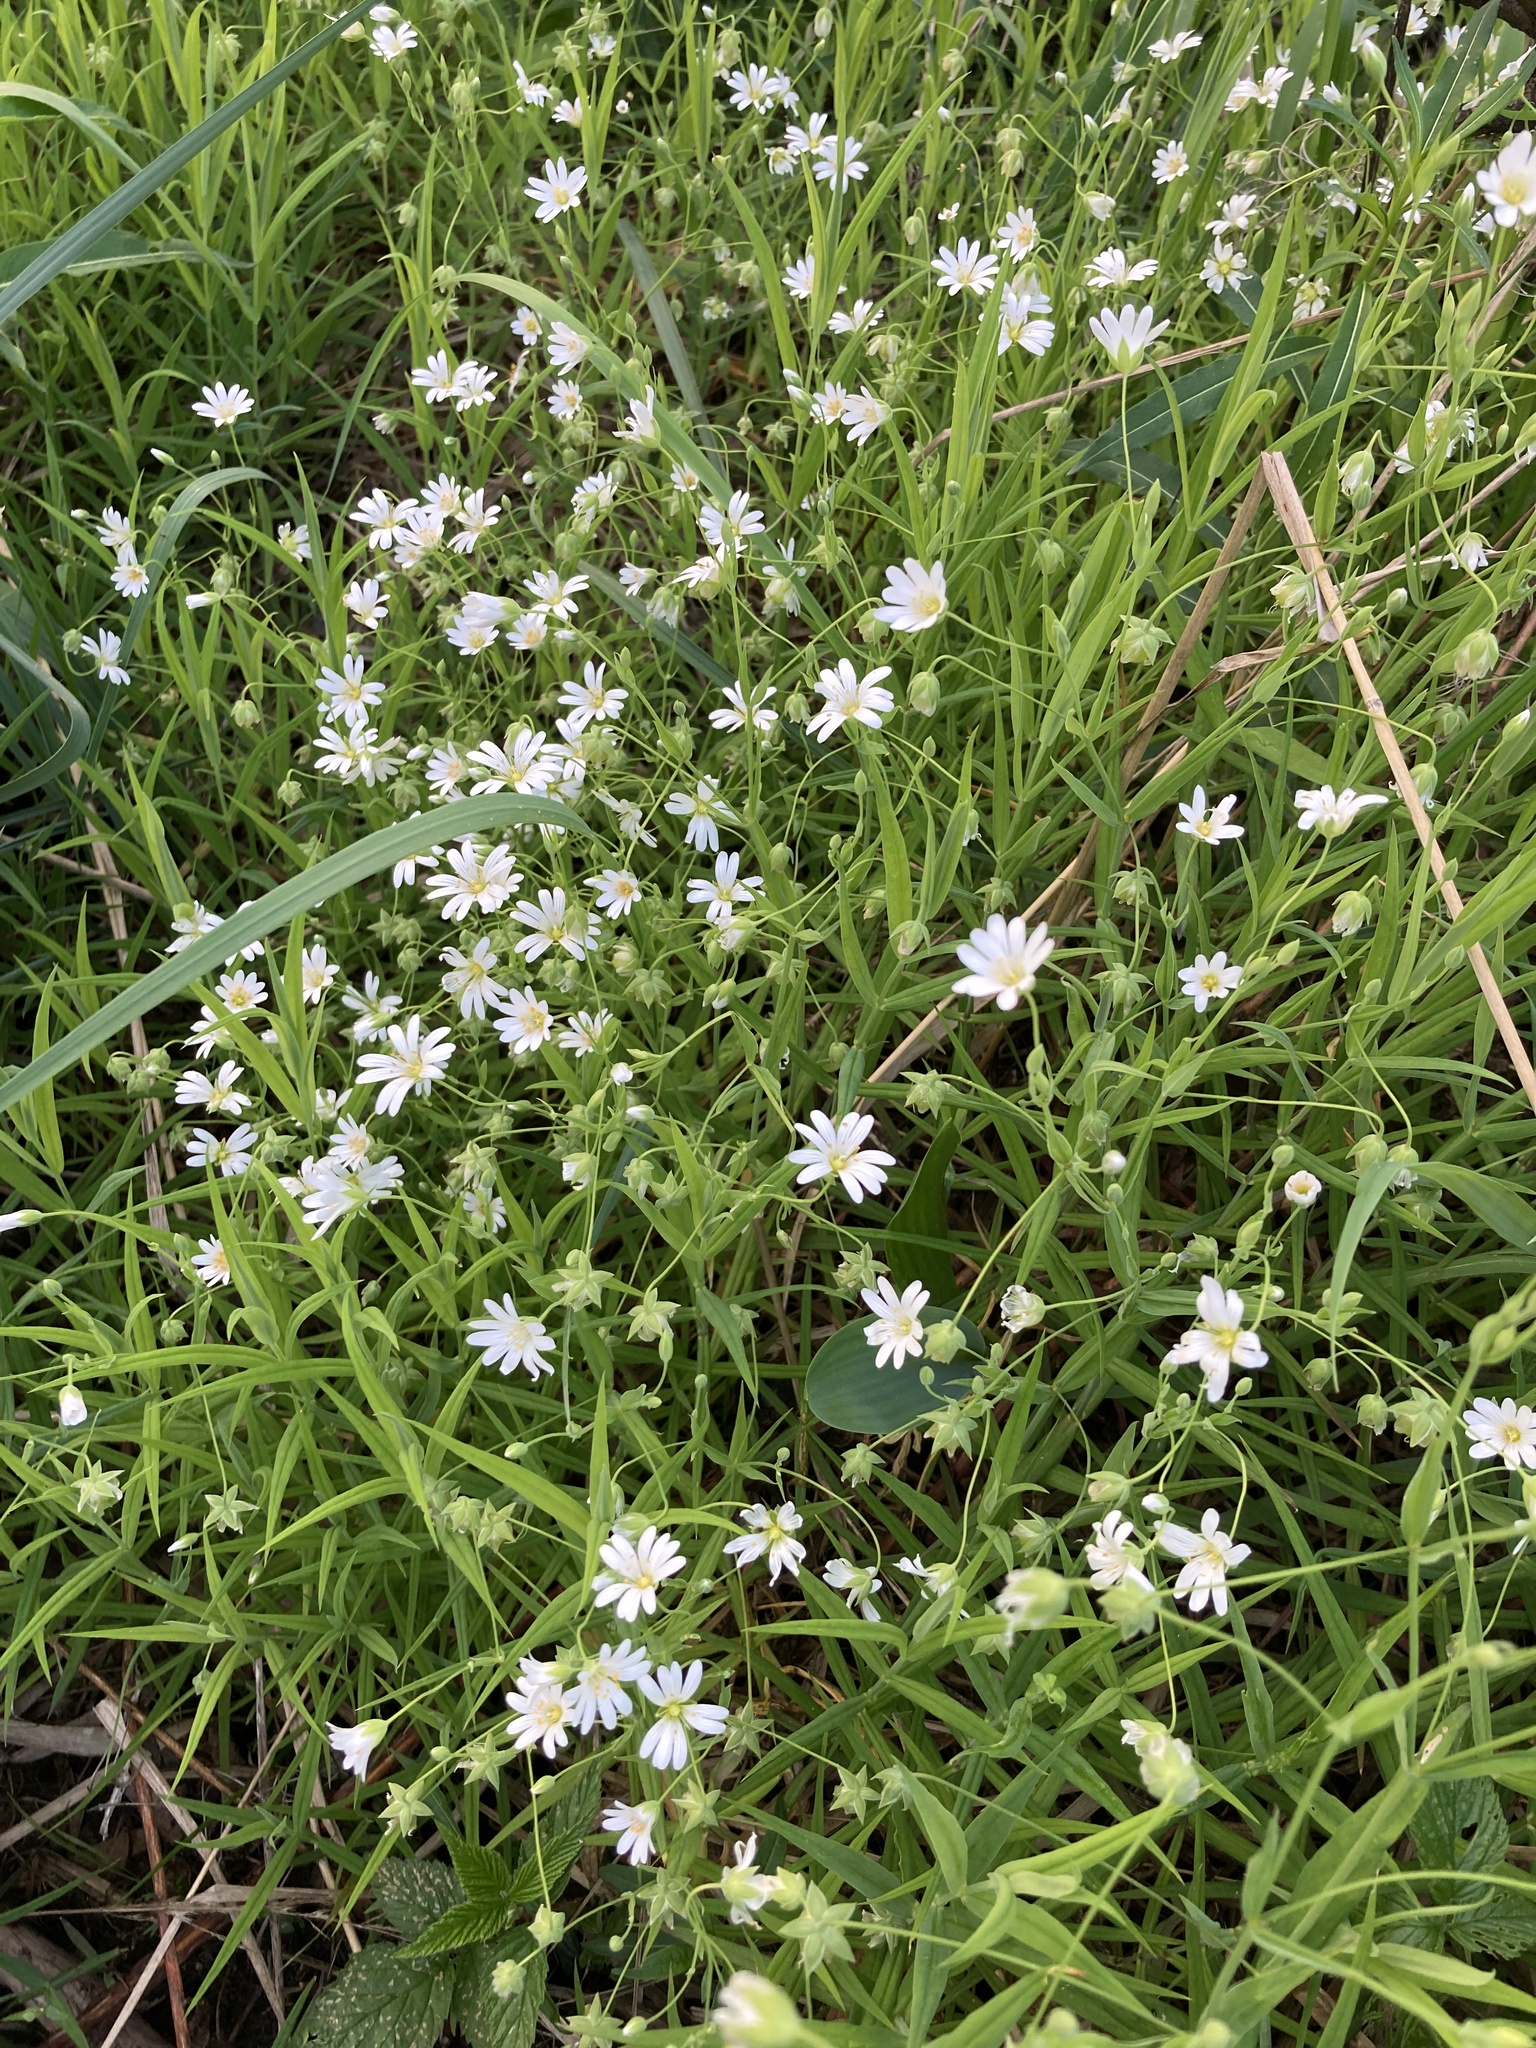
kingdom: Plantae
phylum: Tracheophyta
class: Magnoliopsida
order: Caryophyllales
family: Caryophyllaceae
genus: Rabelera
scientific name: Rabelera holostea
